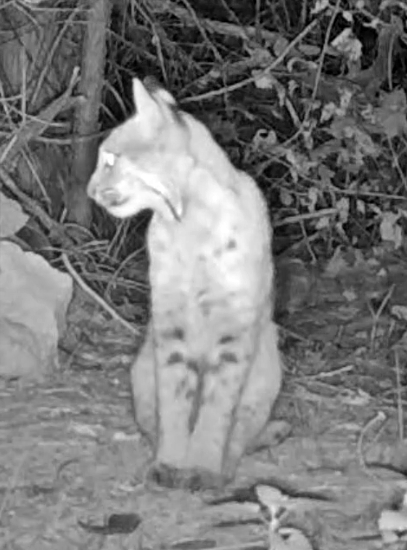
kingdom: Animalia
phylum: Chordata
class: Mammalia
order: Carnivora
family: Felidae
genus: Lynx
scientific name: Lynx rufus
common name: Bobcat
